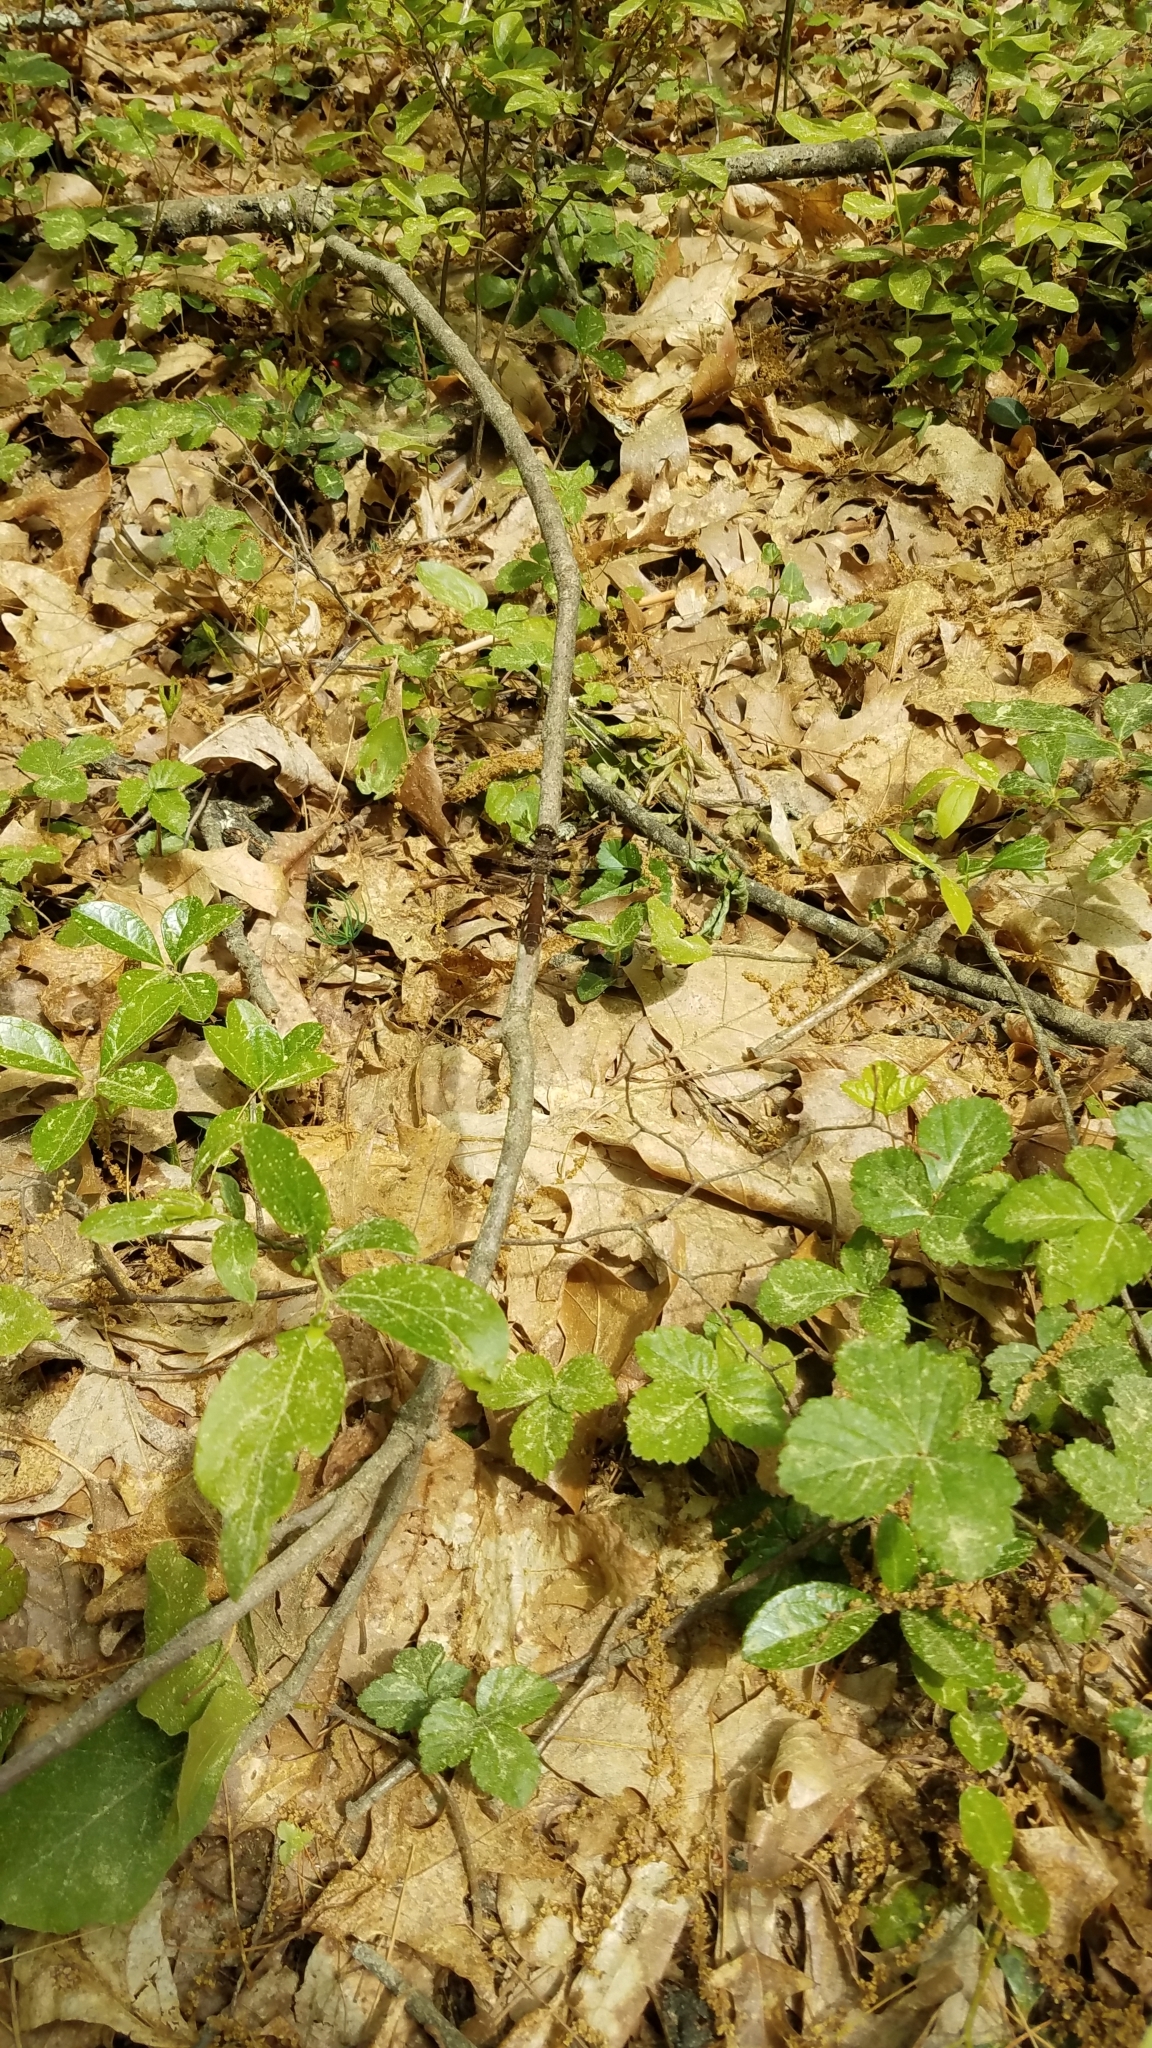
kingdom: Animalia
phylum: Arthropoda
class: Insecta
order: Odonata
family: Libellulidae
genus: Plathemis
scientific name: Plathemis lydia
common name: Common whitetail
